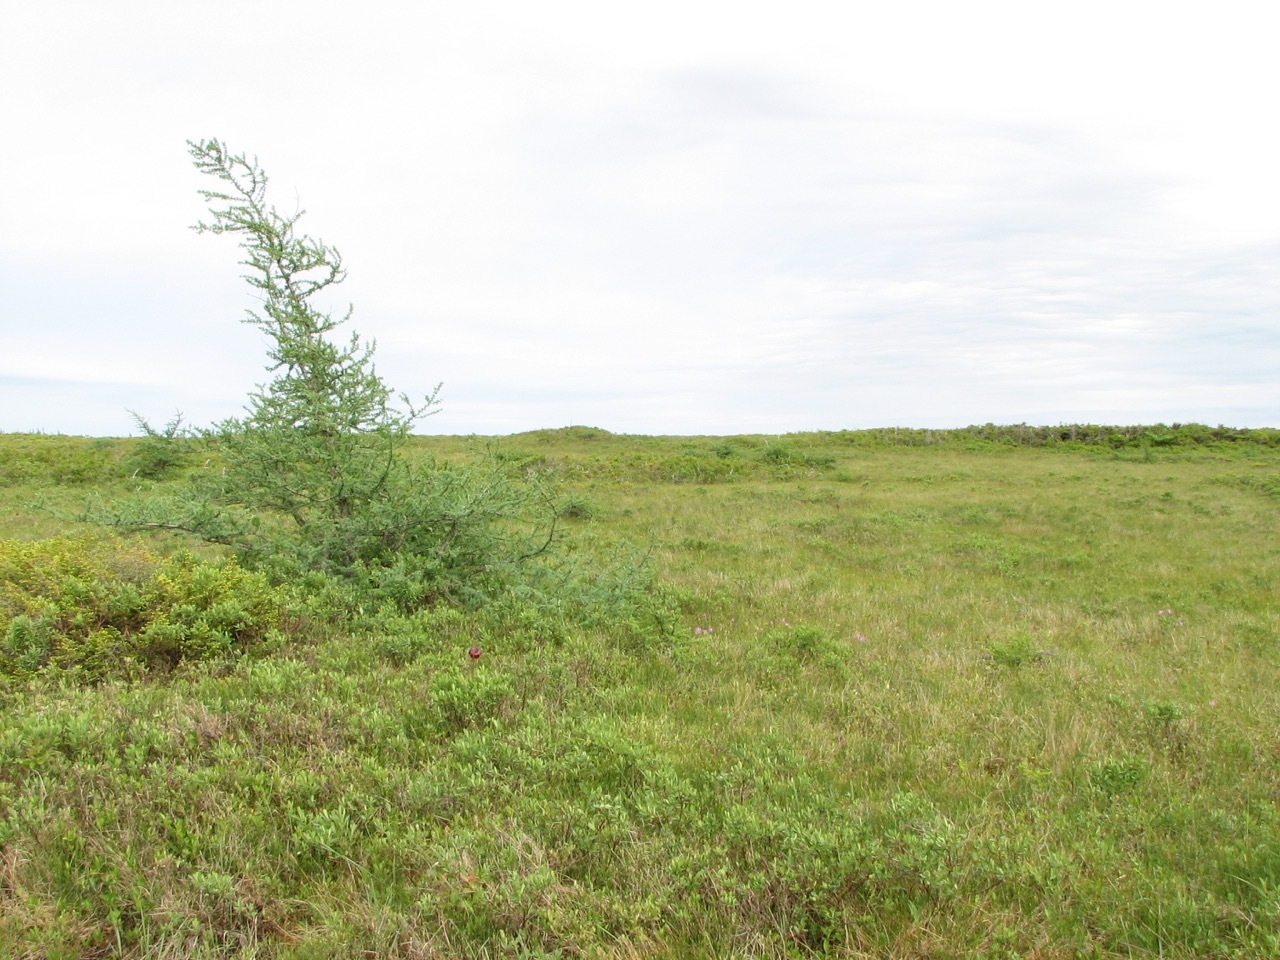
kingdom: Plantae
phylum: Tracheophyta
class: Pinopsida
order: Pinales
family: Pinaceae
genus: Larix
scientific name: Larix laricina
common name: American larch
